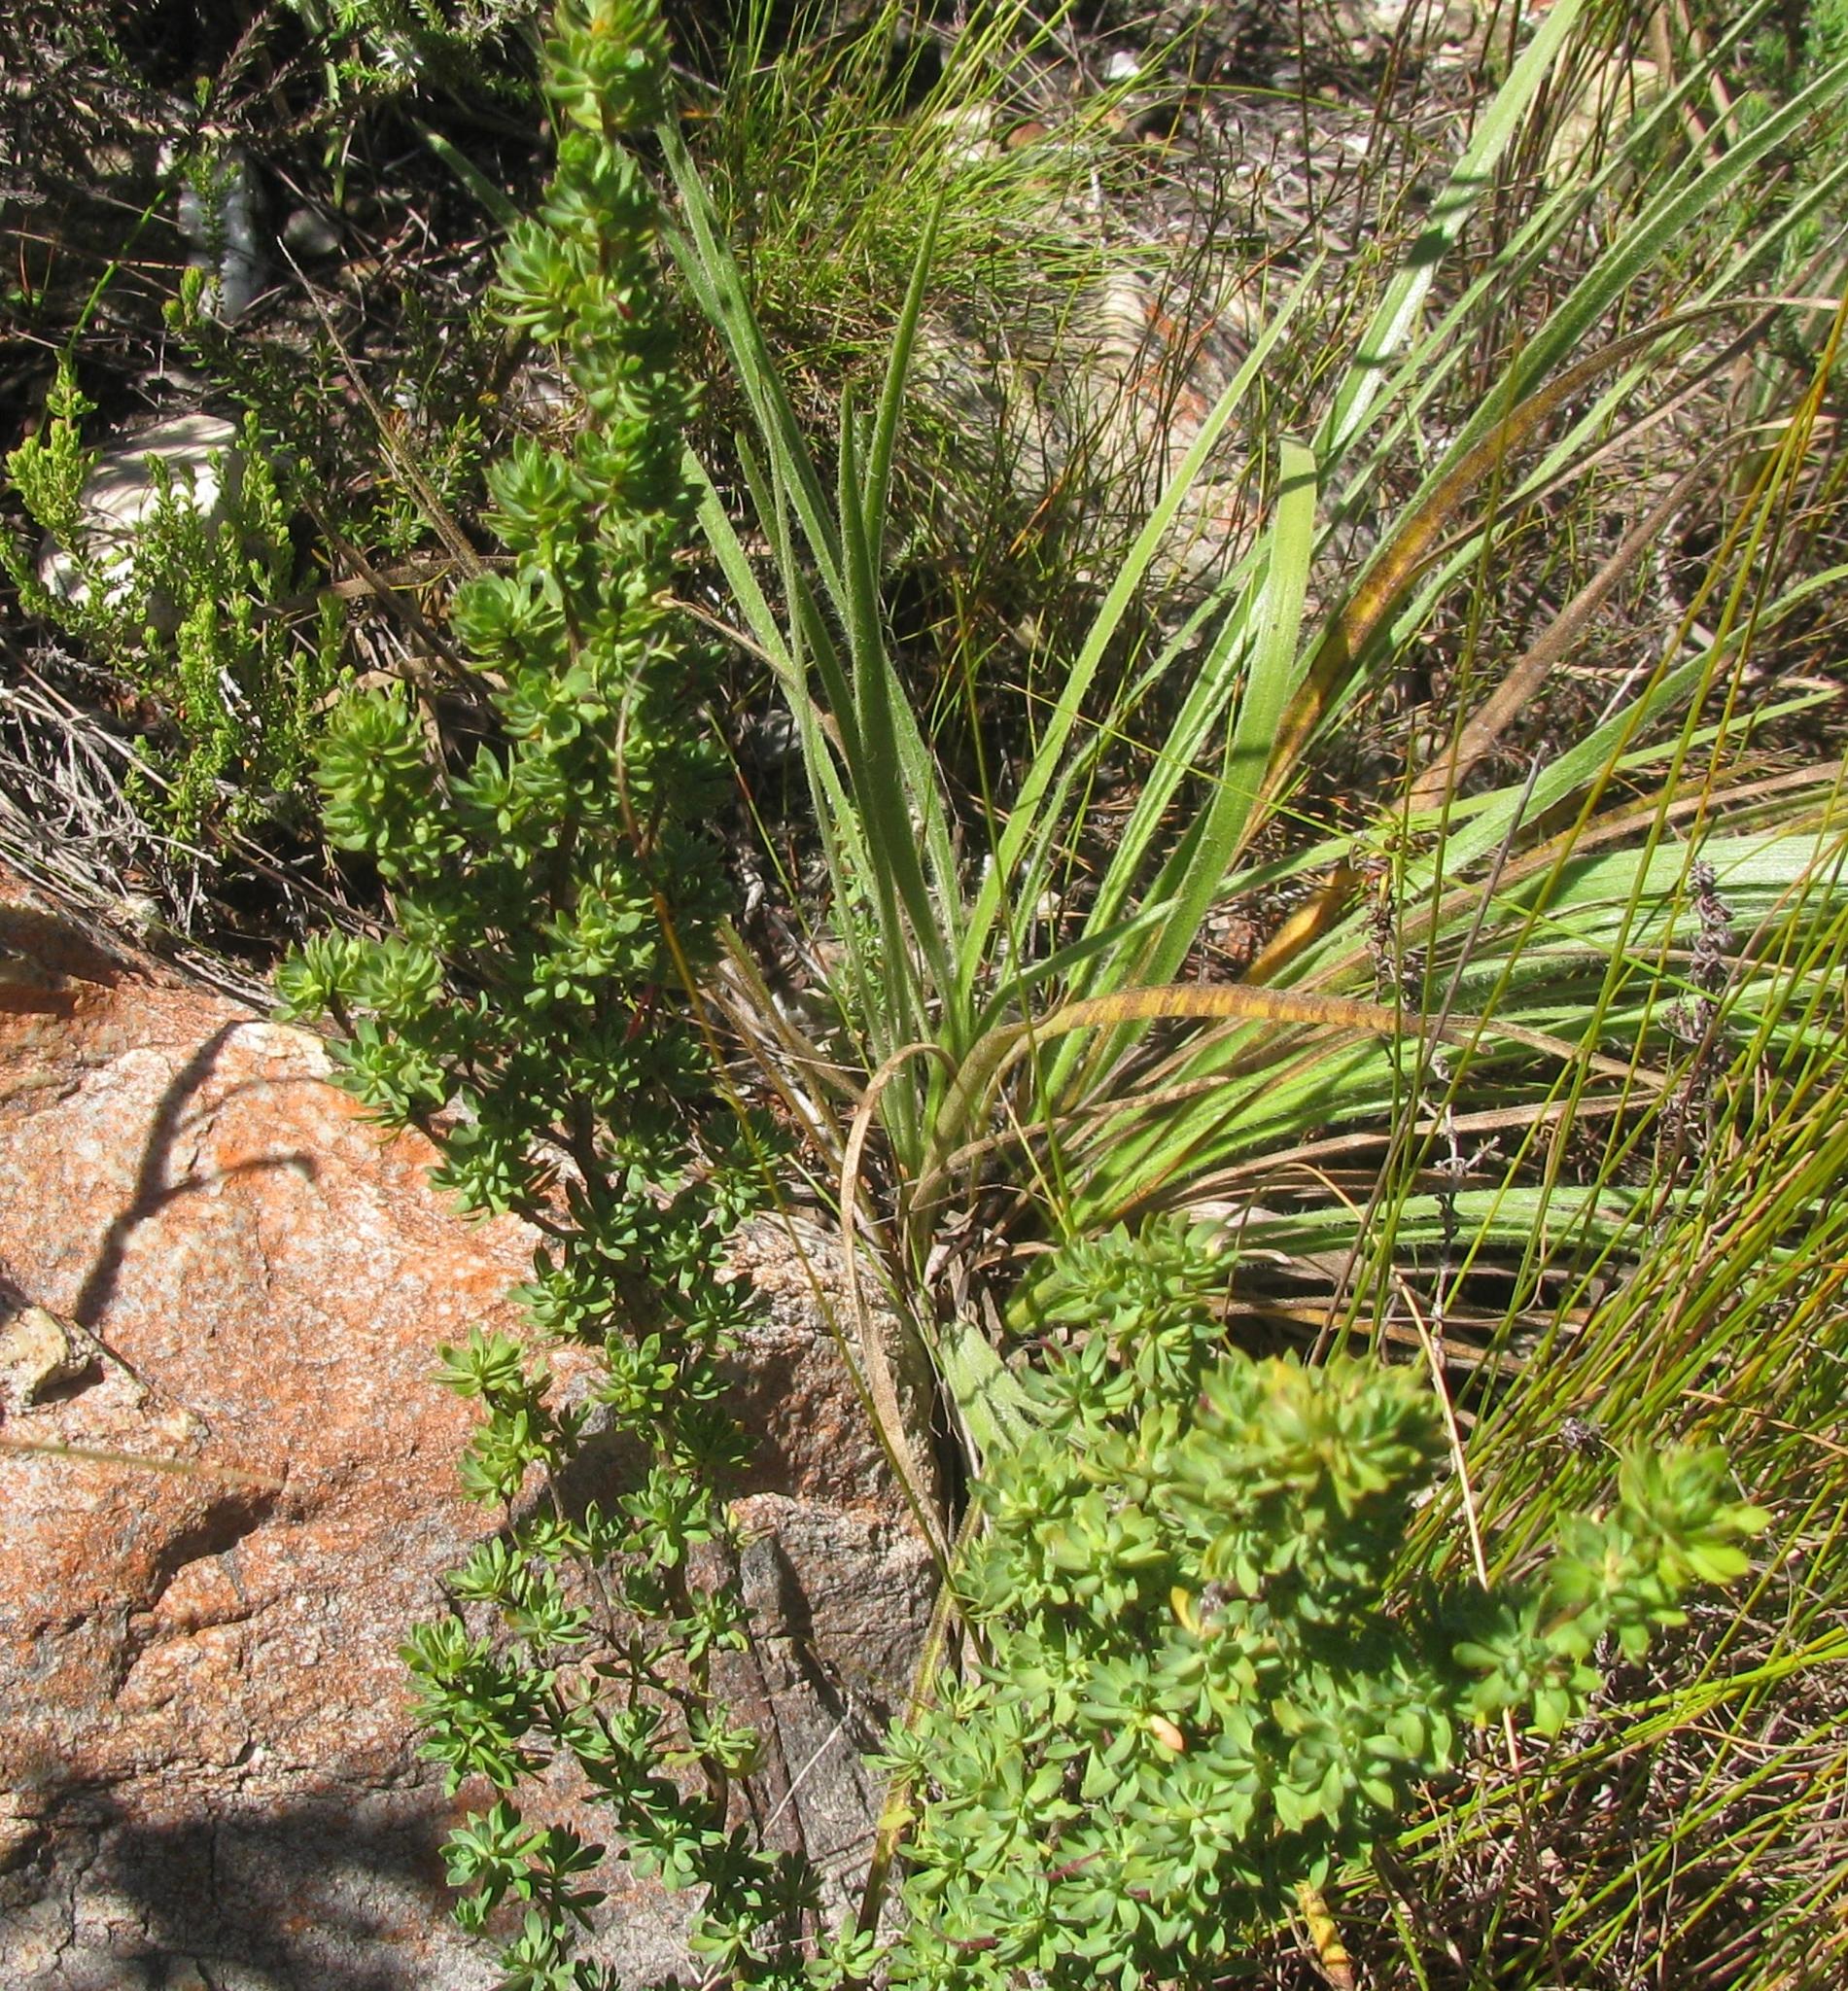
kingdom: Plantae
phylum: Tracheophyta
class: Magnoliopsida
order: Rosales
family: Rosaceae
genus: Cliffortia
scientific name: Cliffortia rigida
